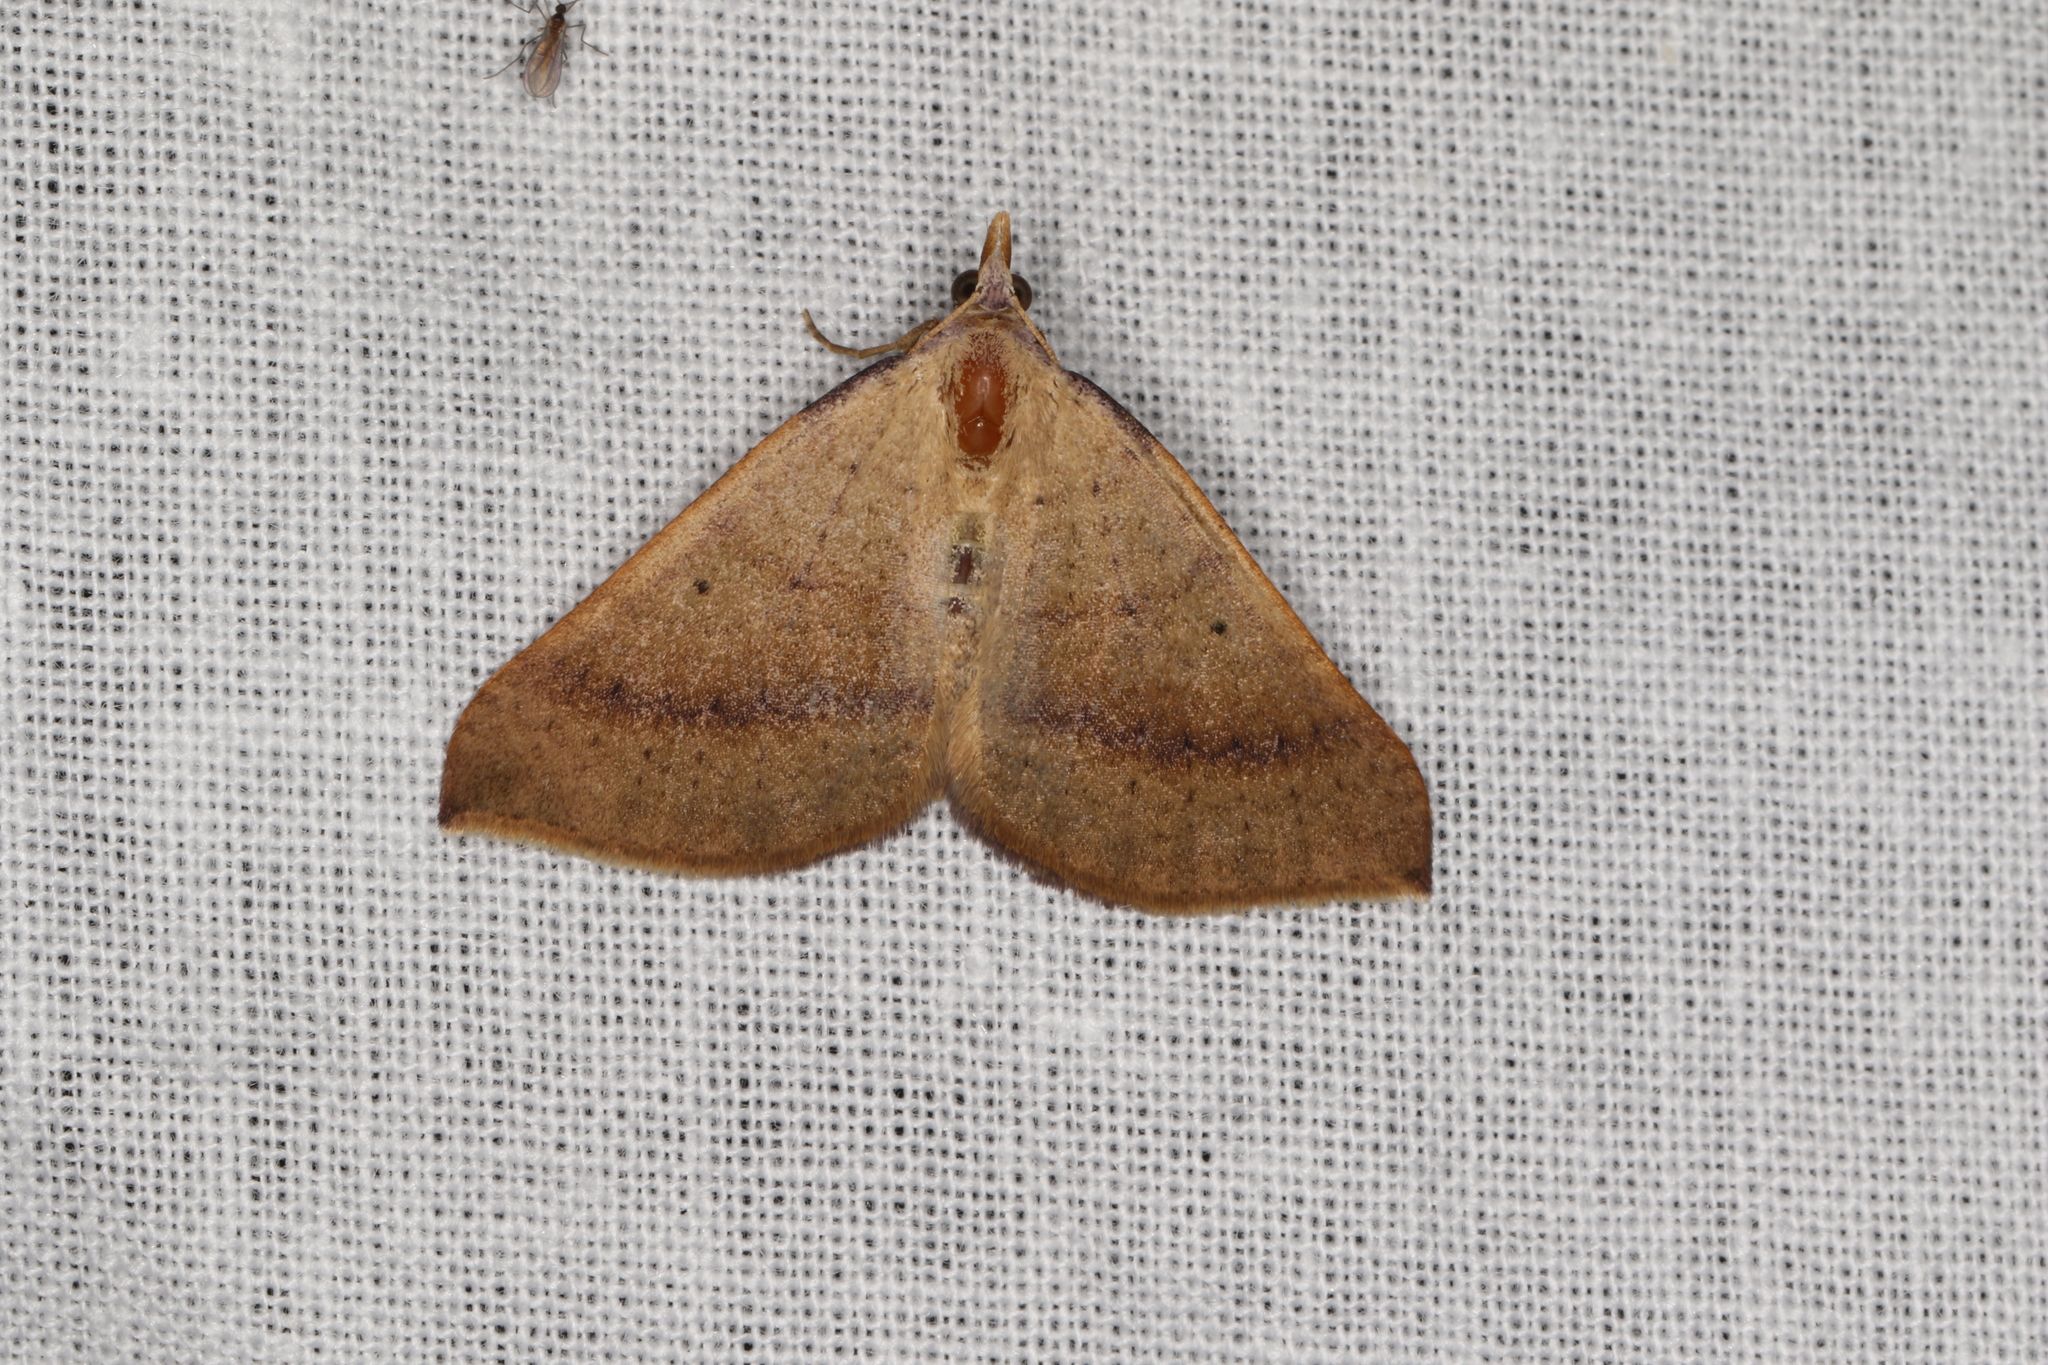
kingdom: Animalia
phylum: Arthropoda
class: Insecta
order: Lepidoptera
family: Geometridae
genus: Anachloris
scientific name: Anachloris uncinata
